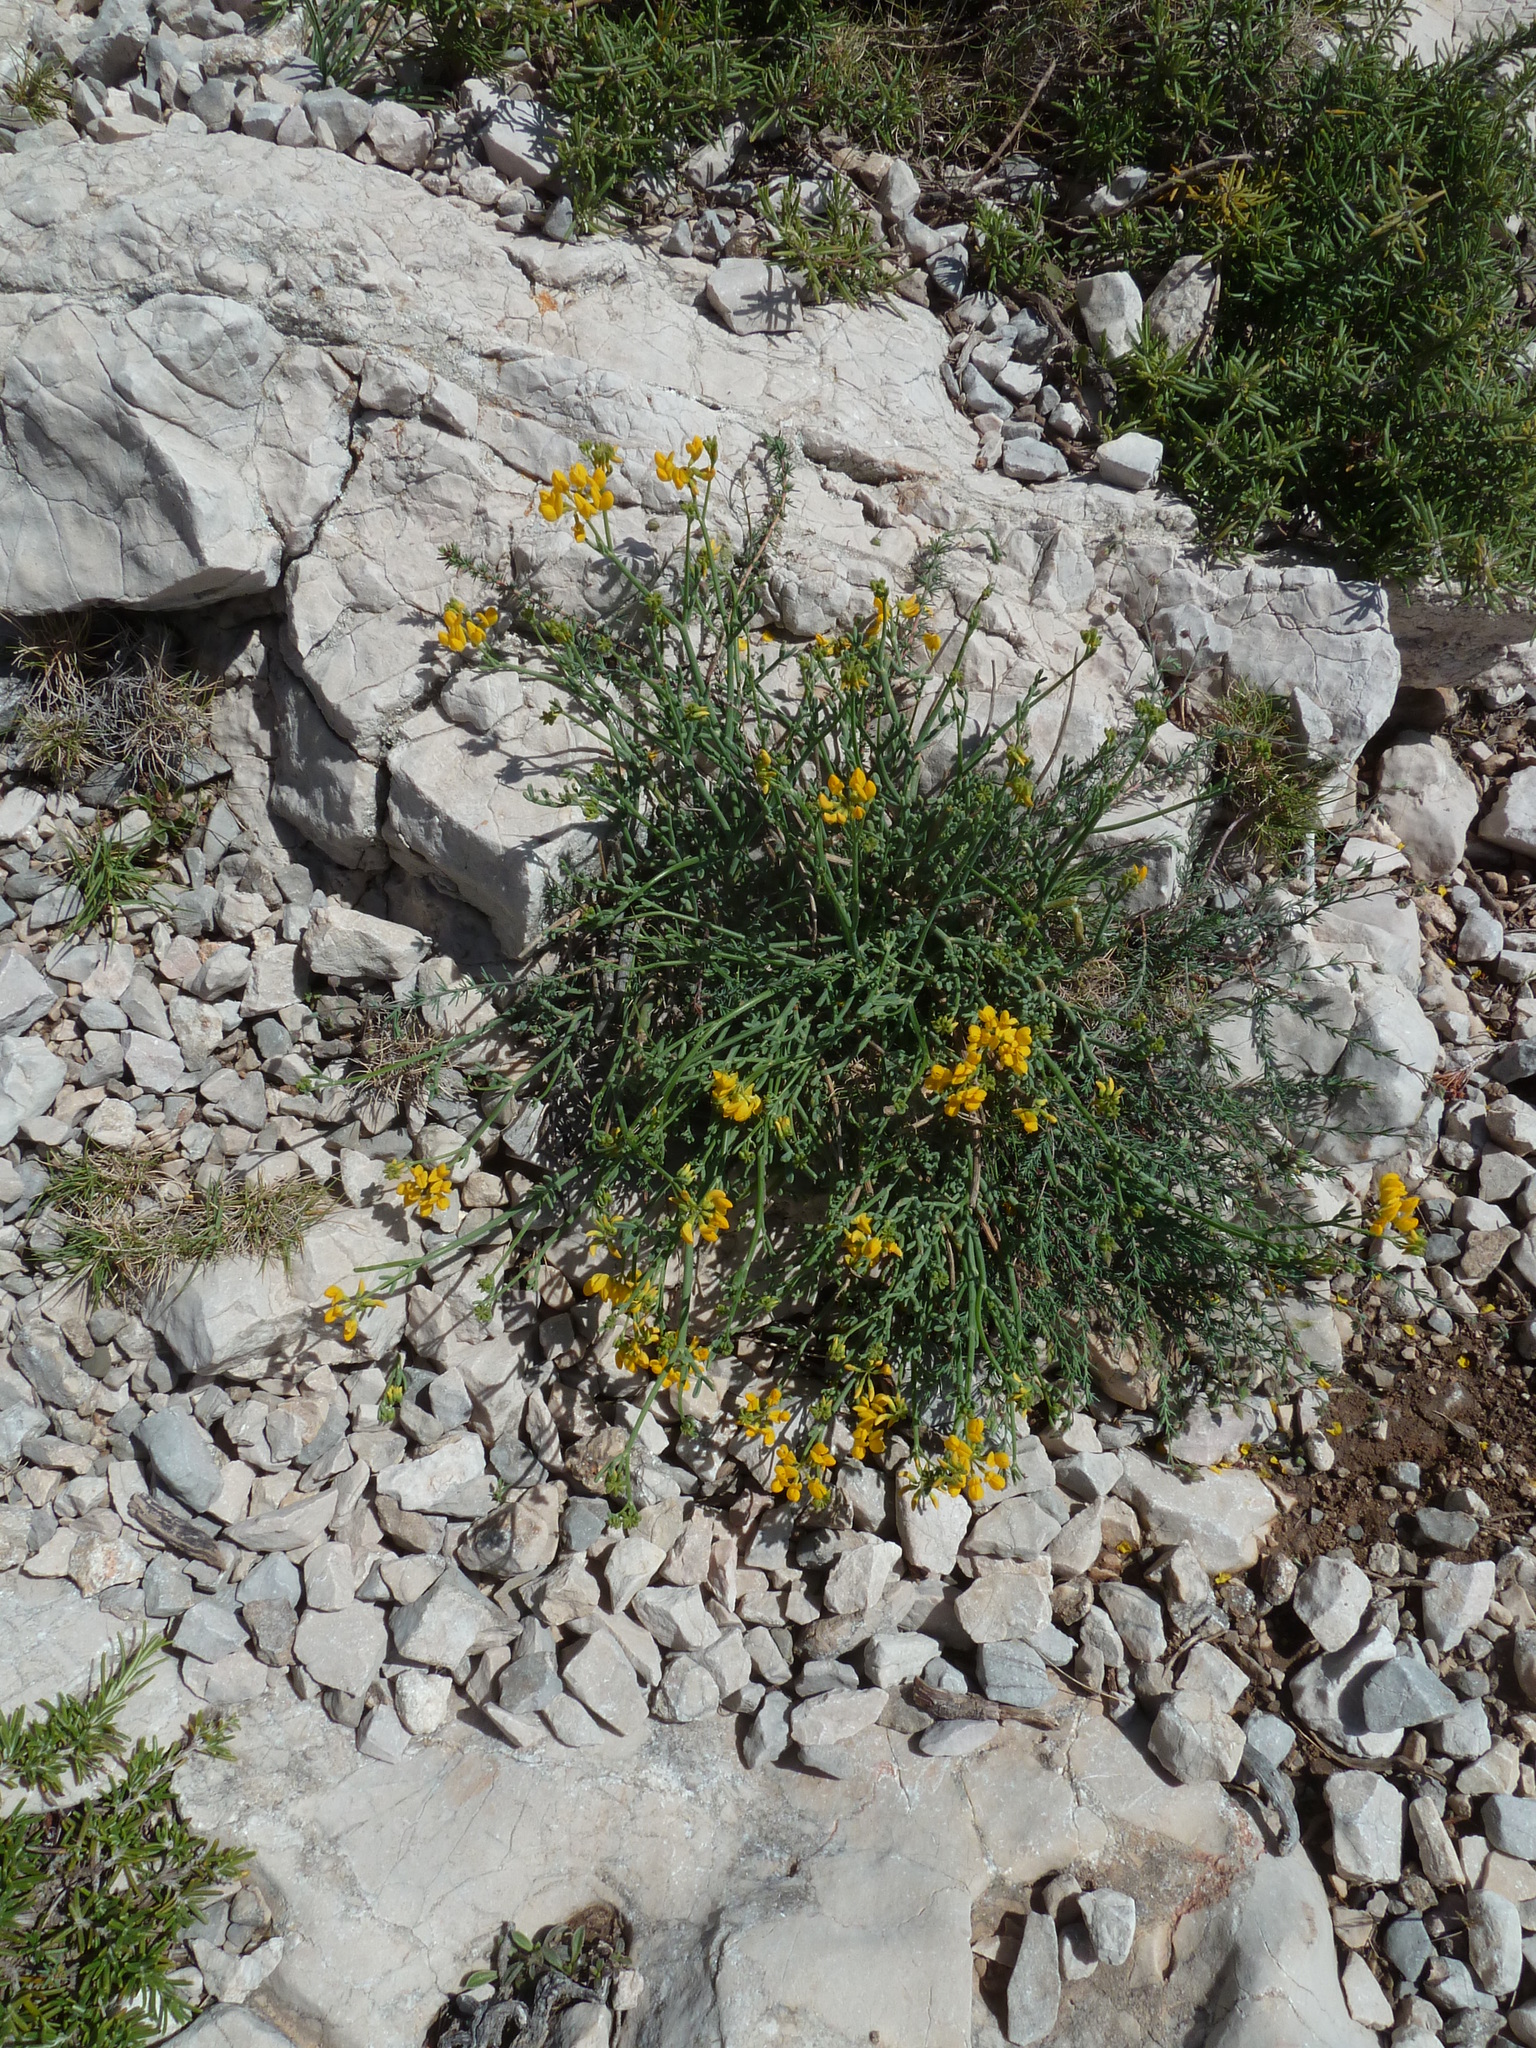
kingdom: Plantae
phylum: Tracheophyta
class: Magnoliopsida
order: Fabales
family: Fabaceae
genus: Coronilla
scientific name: Coronilla juncea
